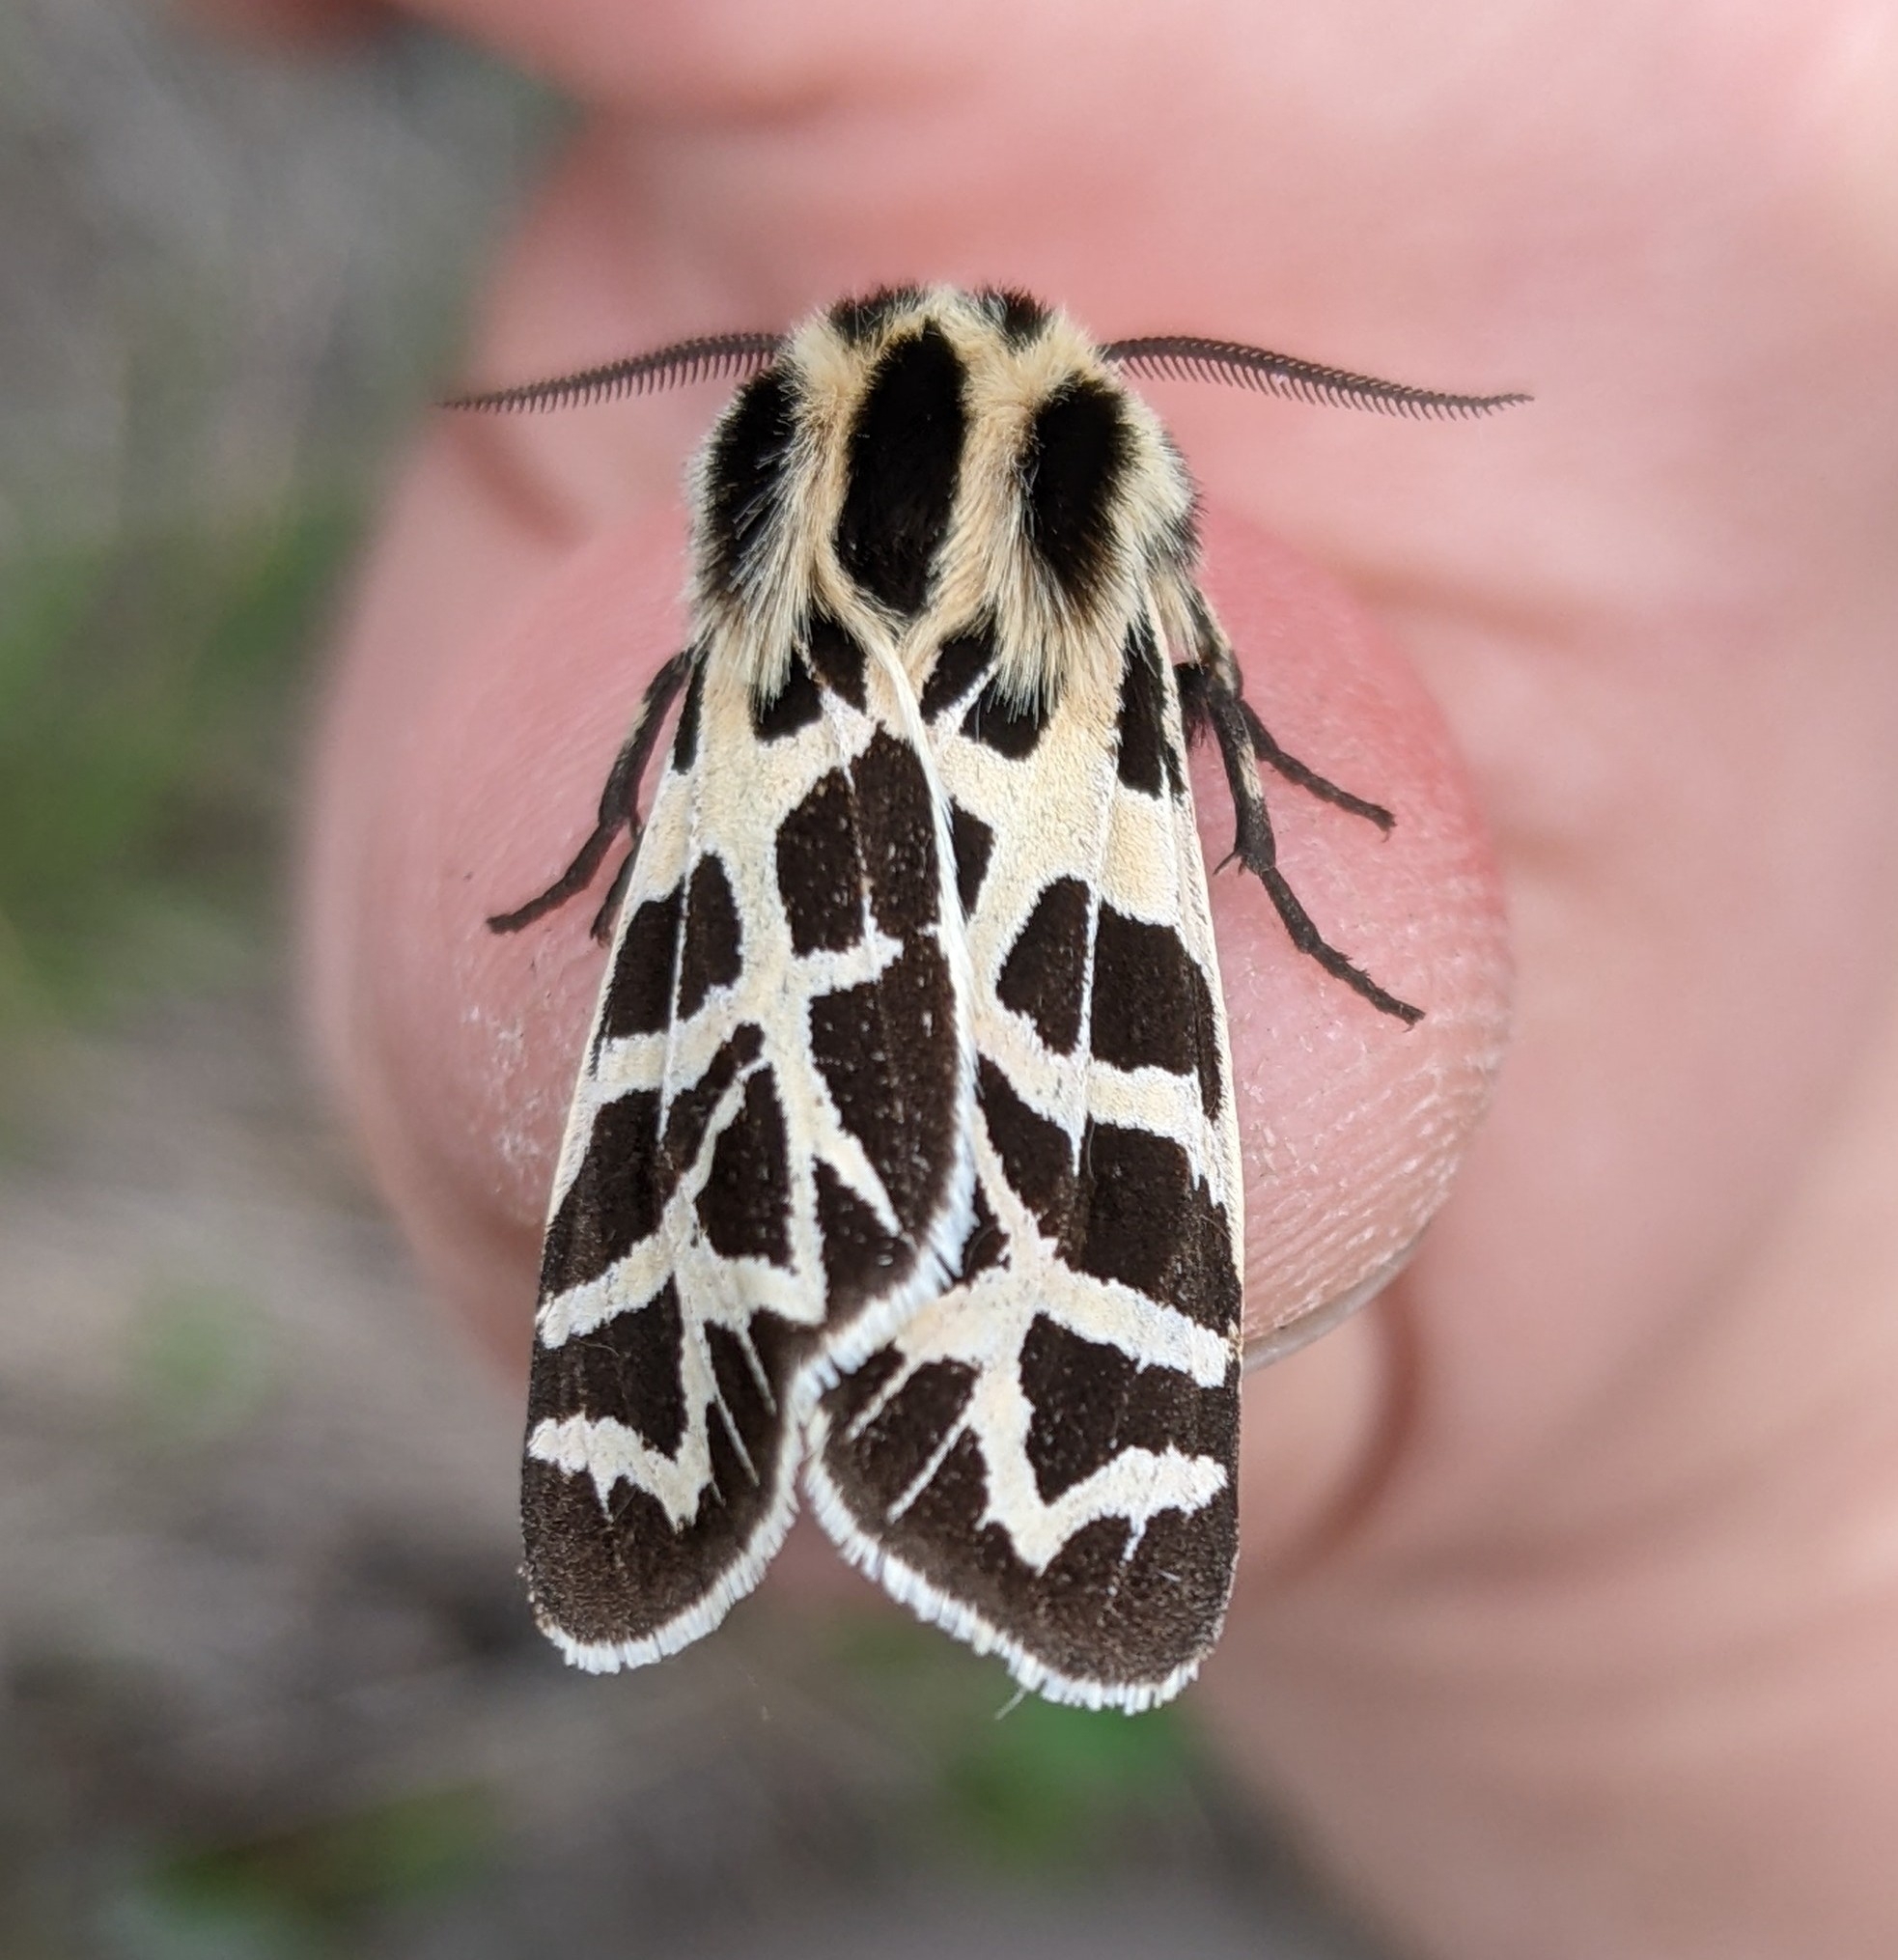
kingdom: Animalia
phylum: Arthropoda
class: Insecta
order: Lepidoptera
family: Erebidae
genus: Apantesis
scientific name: Apantesis
